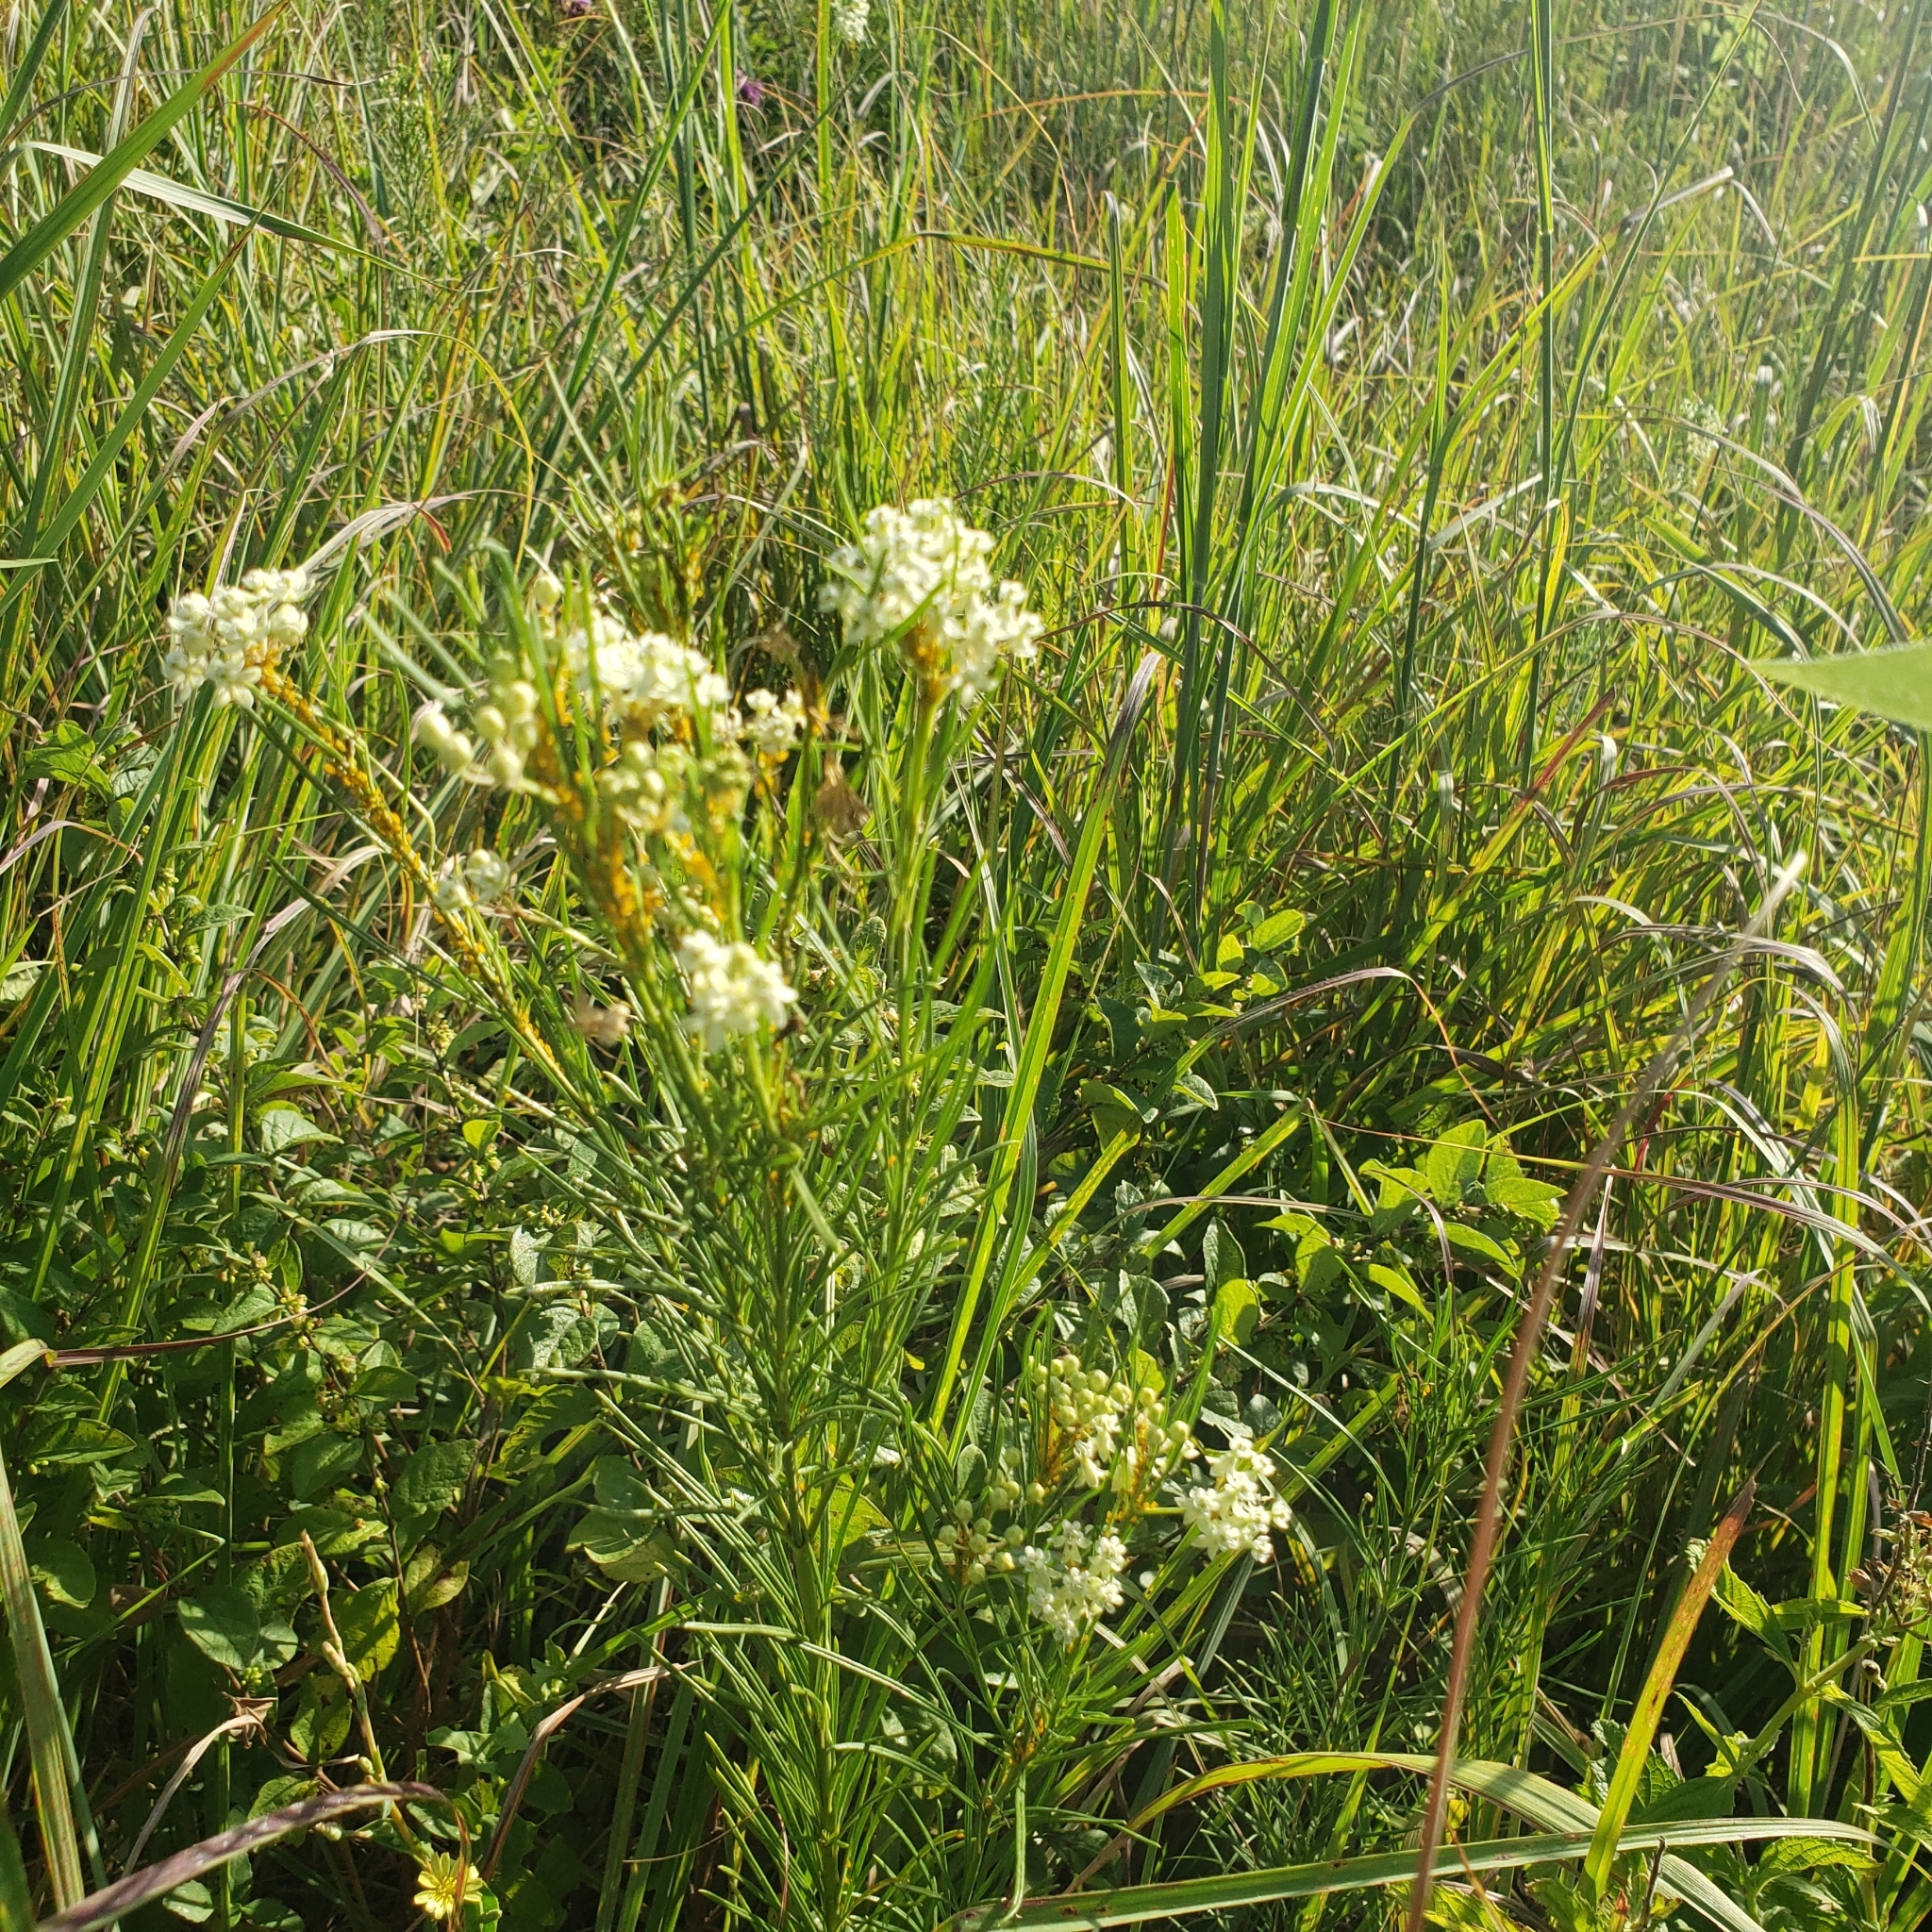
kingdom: Plantae
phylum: Tracheophyta
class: Magnoliopsida
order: Gentianales
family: Apocynaceae
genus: Asclepias
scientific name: Asclepias verticillata
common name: Eastern whorled milkweed
